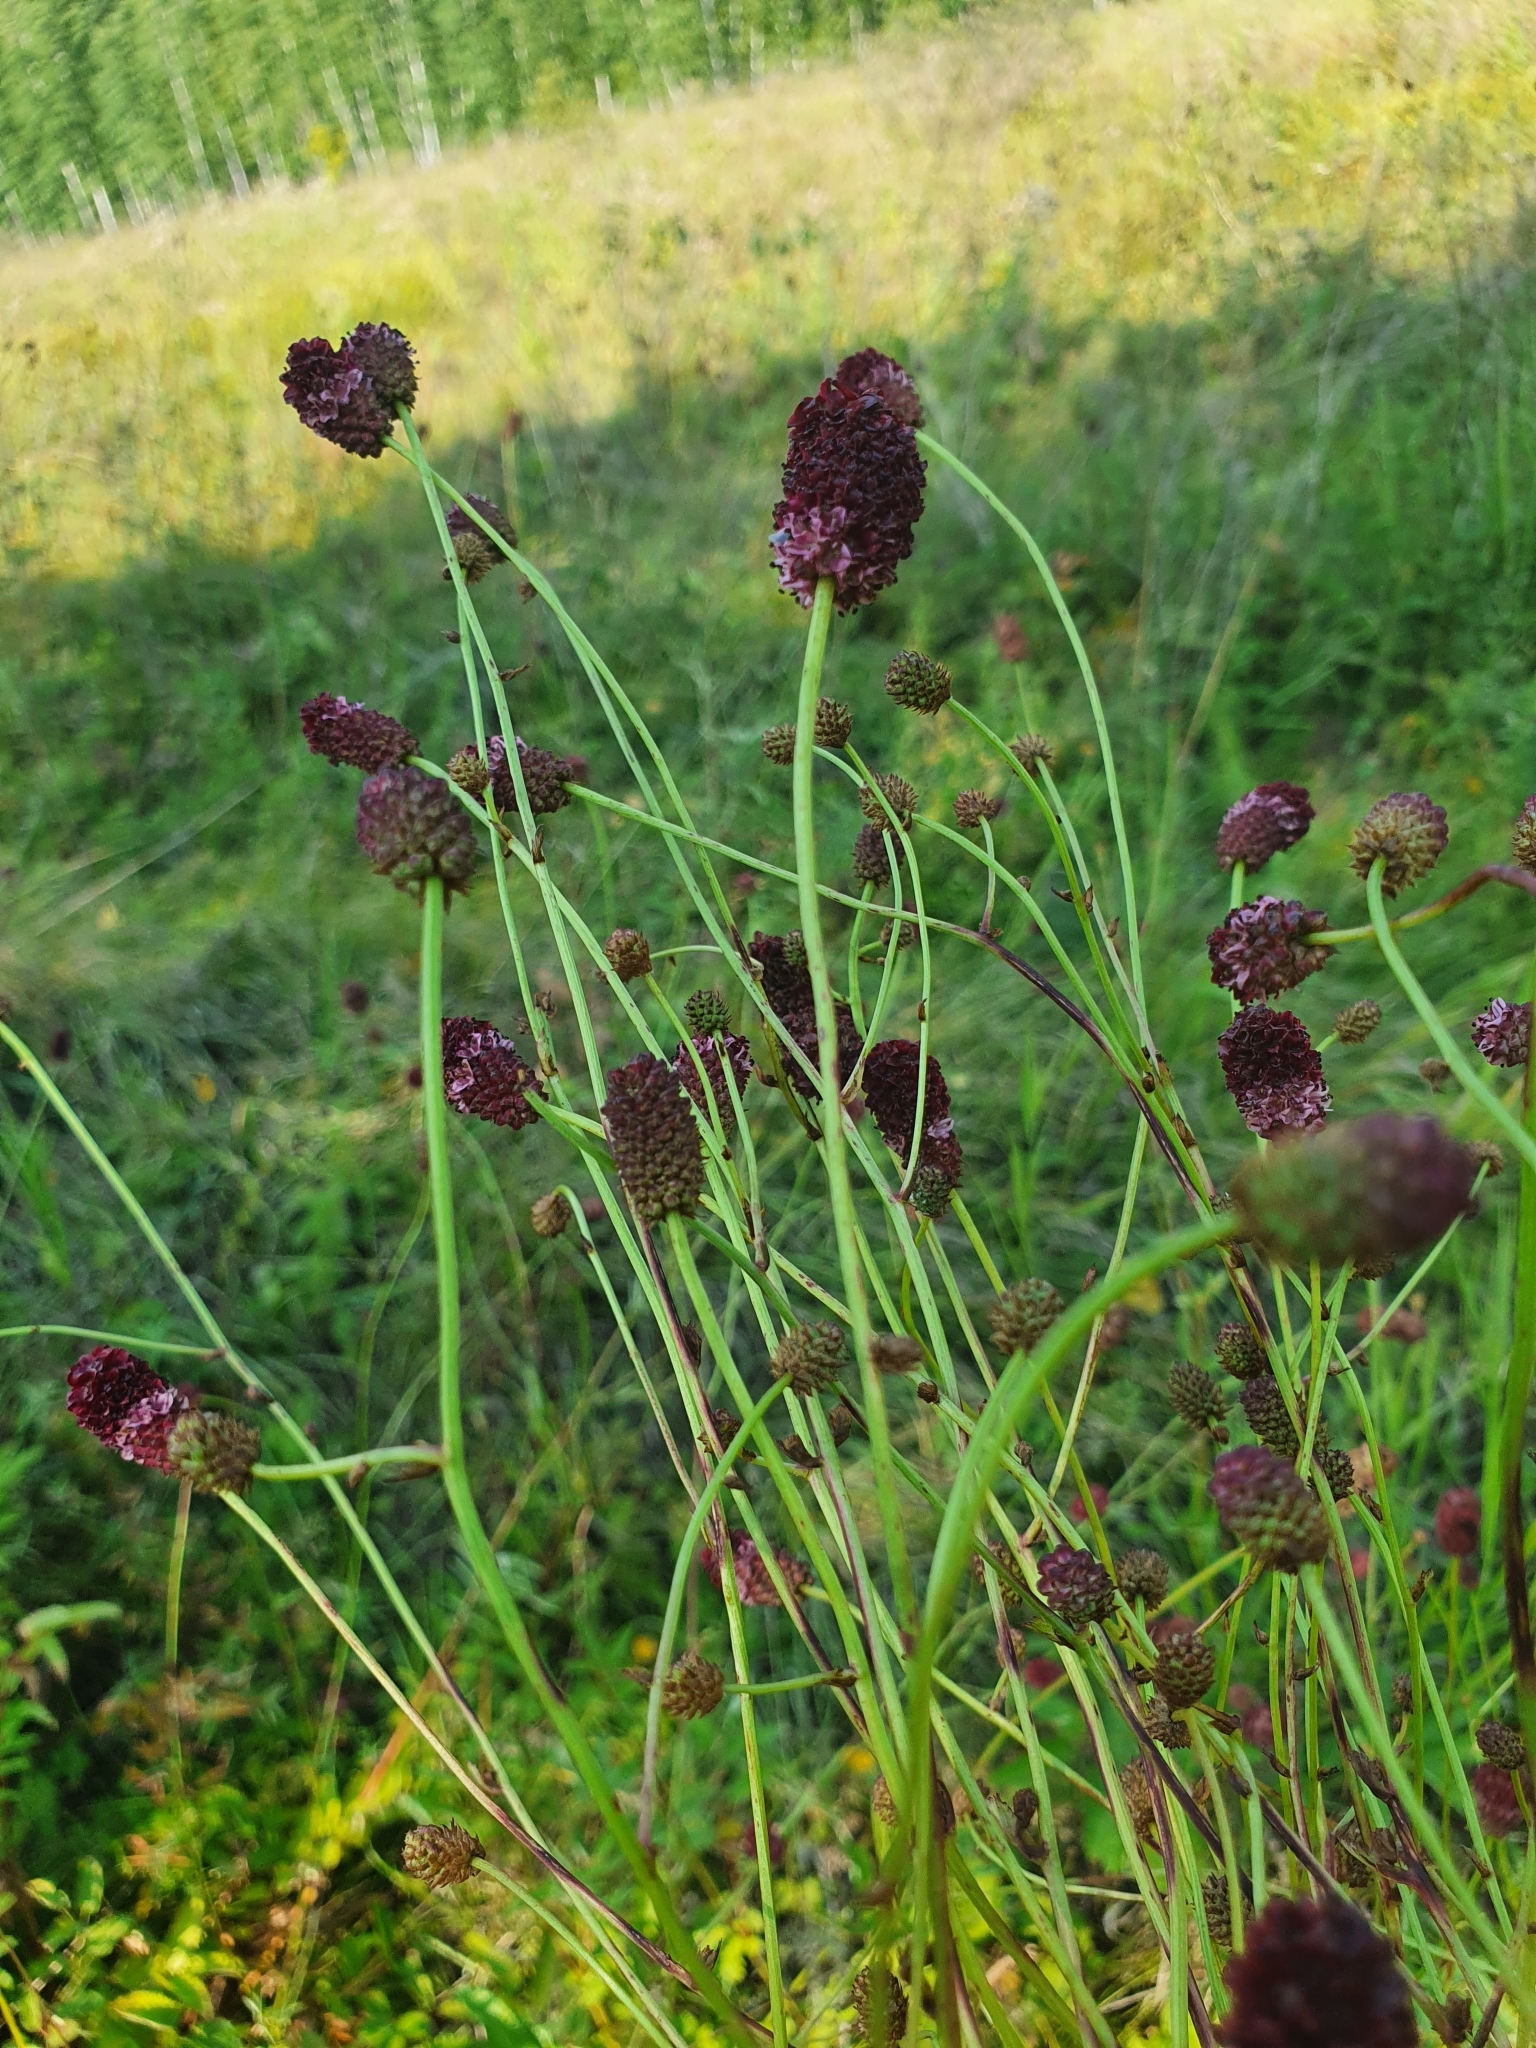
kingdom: Plantae
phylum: Tracheophyta
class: Magnoliopsida
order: Rosales
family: Rosaceae
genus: Sanguisorba
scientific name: Sanguisorba officinalis
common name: Great burnet
